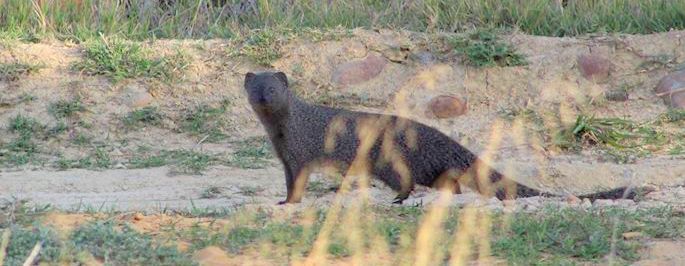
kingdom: Animalia
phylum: Chordata
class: Mammalia
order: Carnivora
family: Herpestidae
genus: Galerella
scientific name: Galerella pulverulenta
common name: Cape gray mongoose
